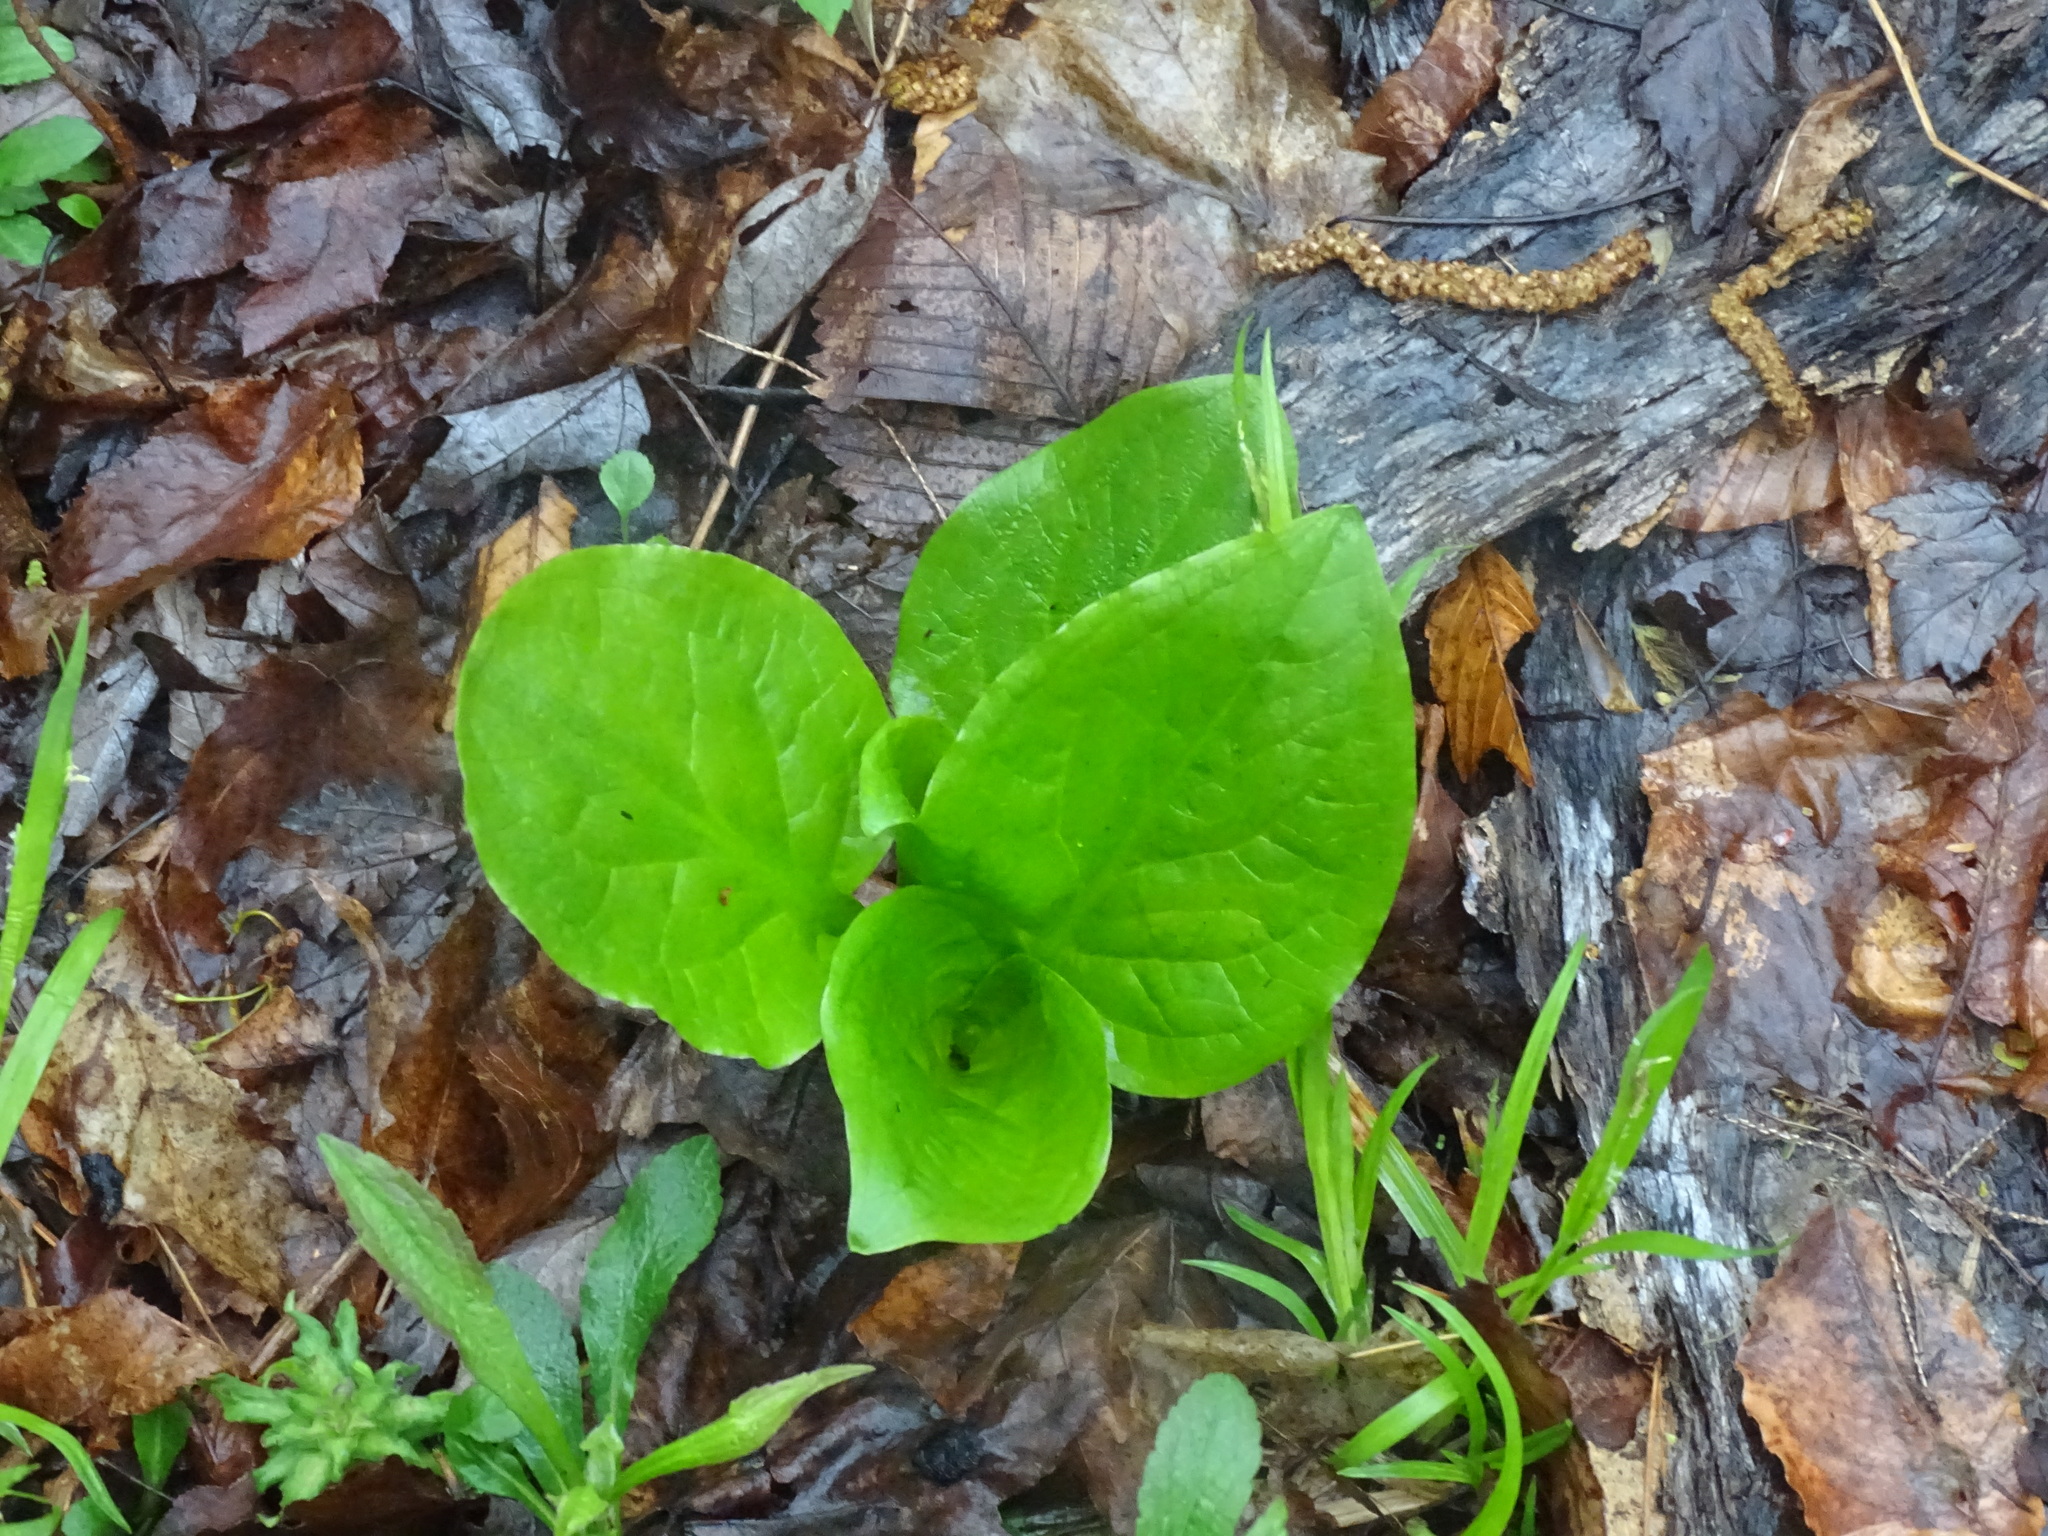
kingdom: Plantae
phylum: Tracheophyta
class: Liliopsida
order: Alismatales
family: Araceae
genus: Symplocarpus
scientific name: Symplocarpus foetidus
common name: Eastern skunk cabbage
